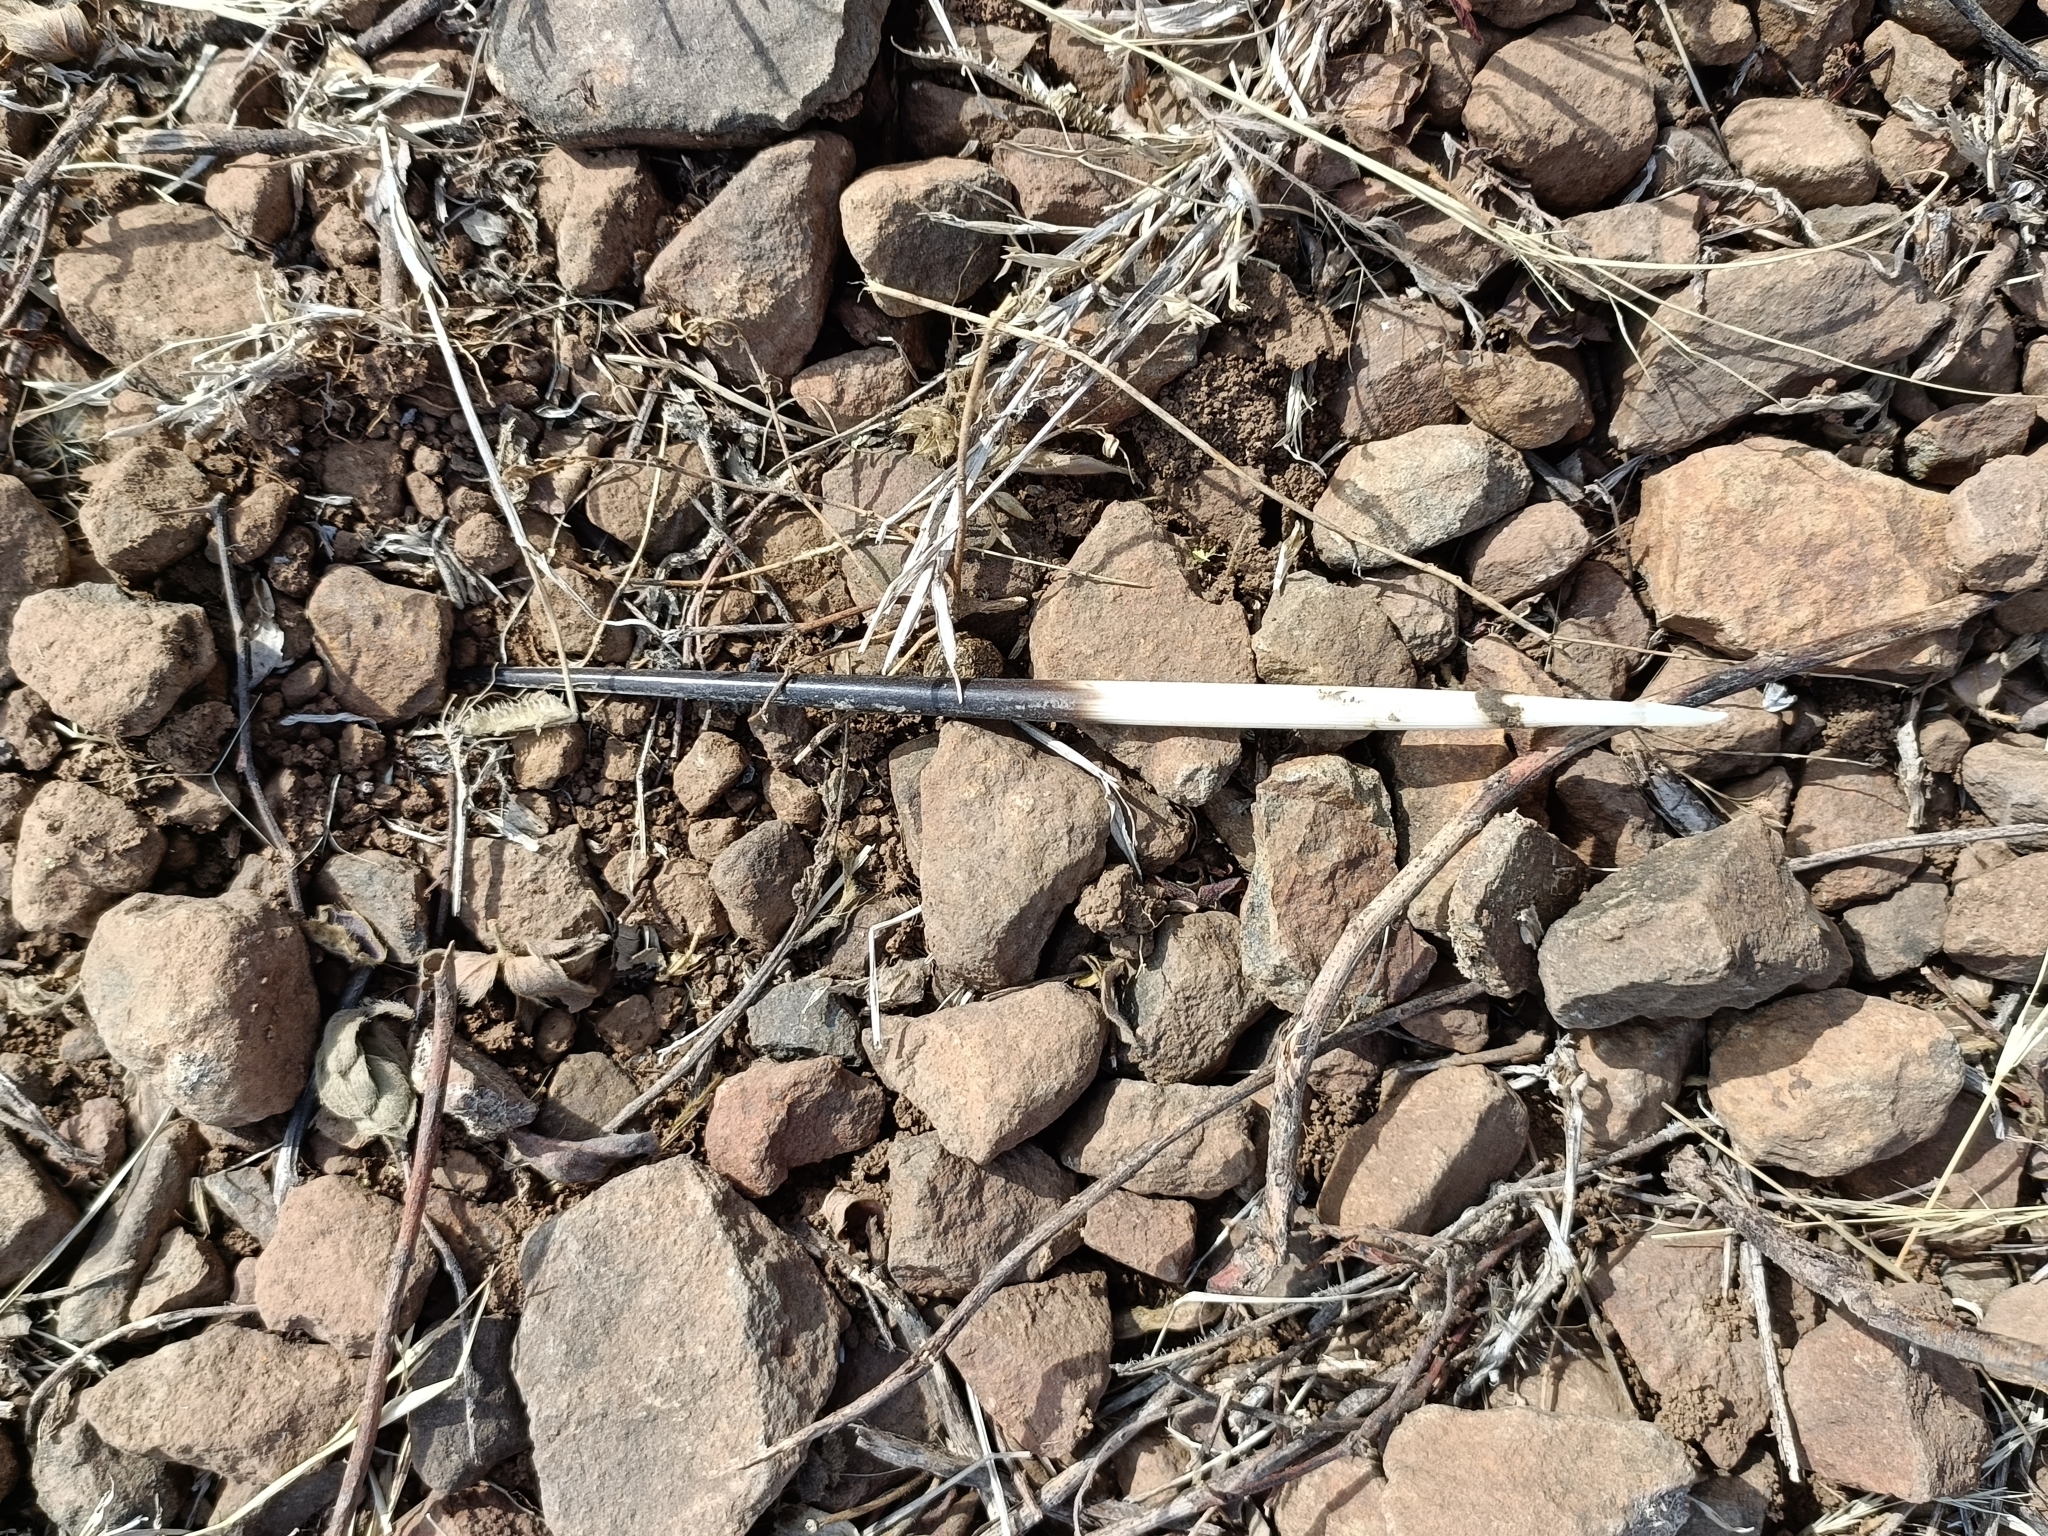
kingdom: Animalia
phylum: Chordata
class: Mammalia
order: Rodentia
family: Hystricidae
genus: Hystrix
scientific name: Hystrix indica
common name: Indian crested porcupine
